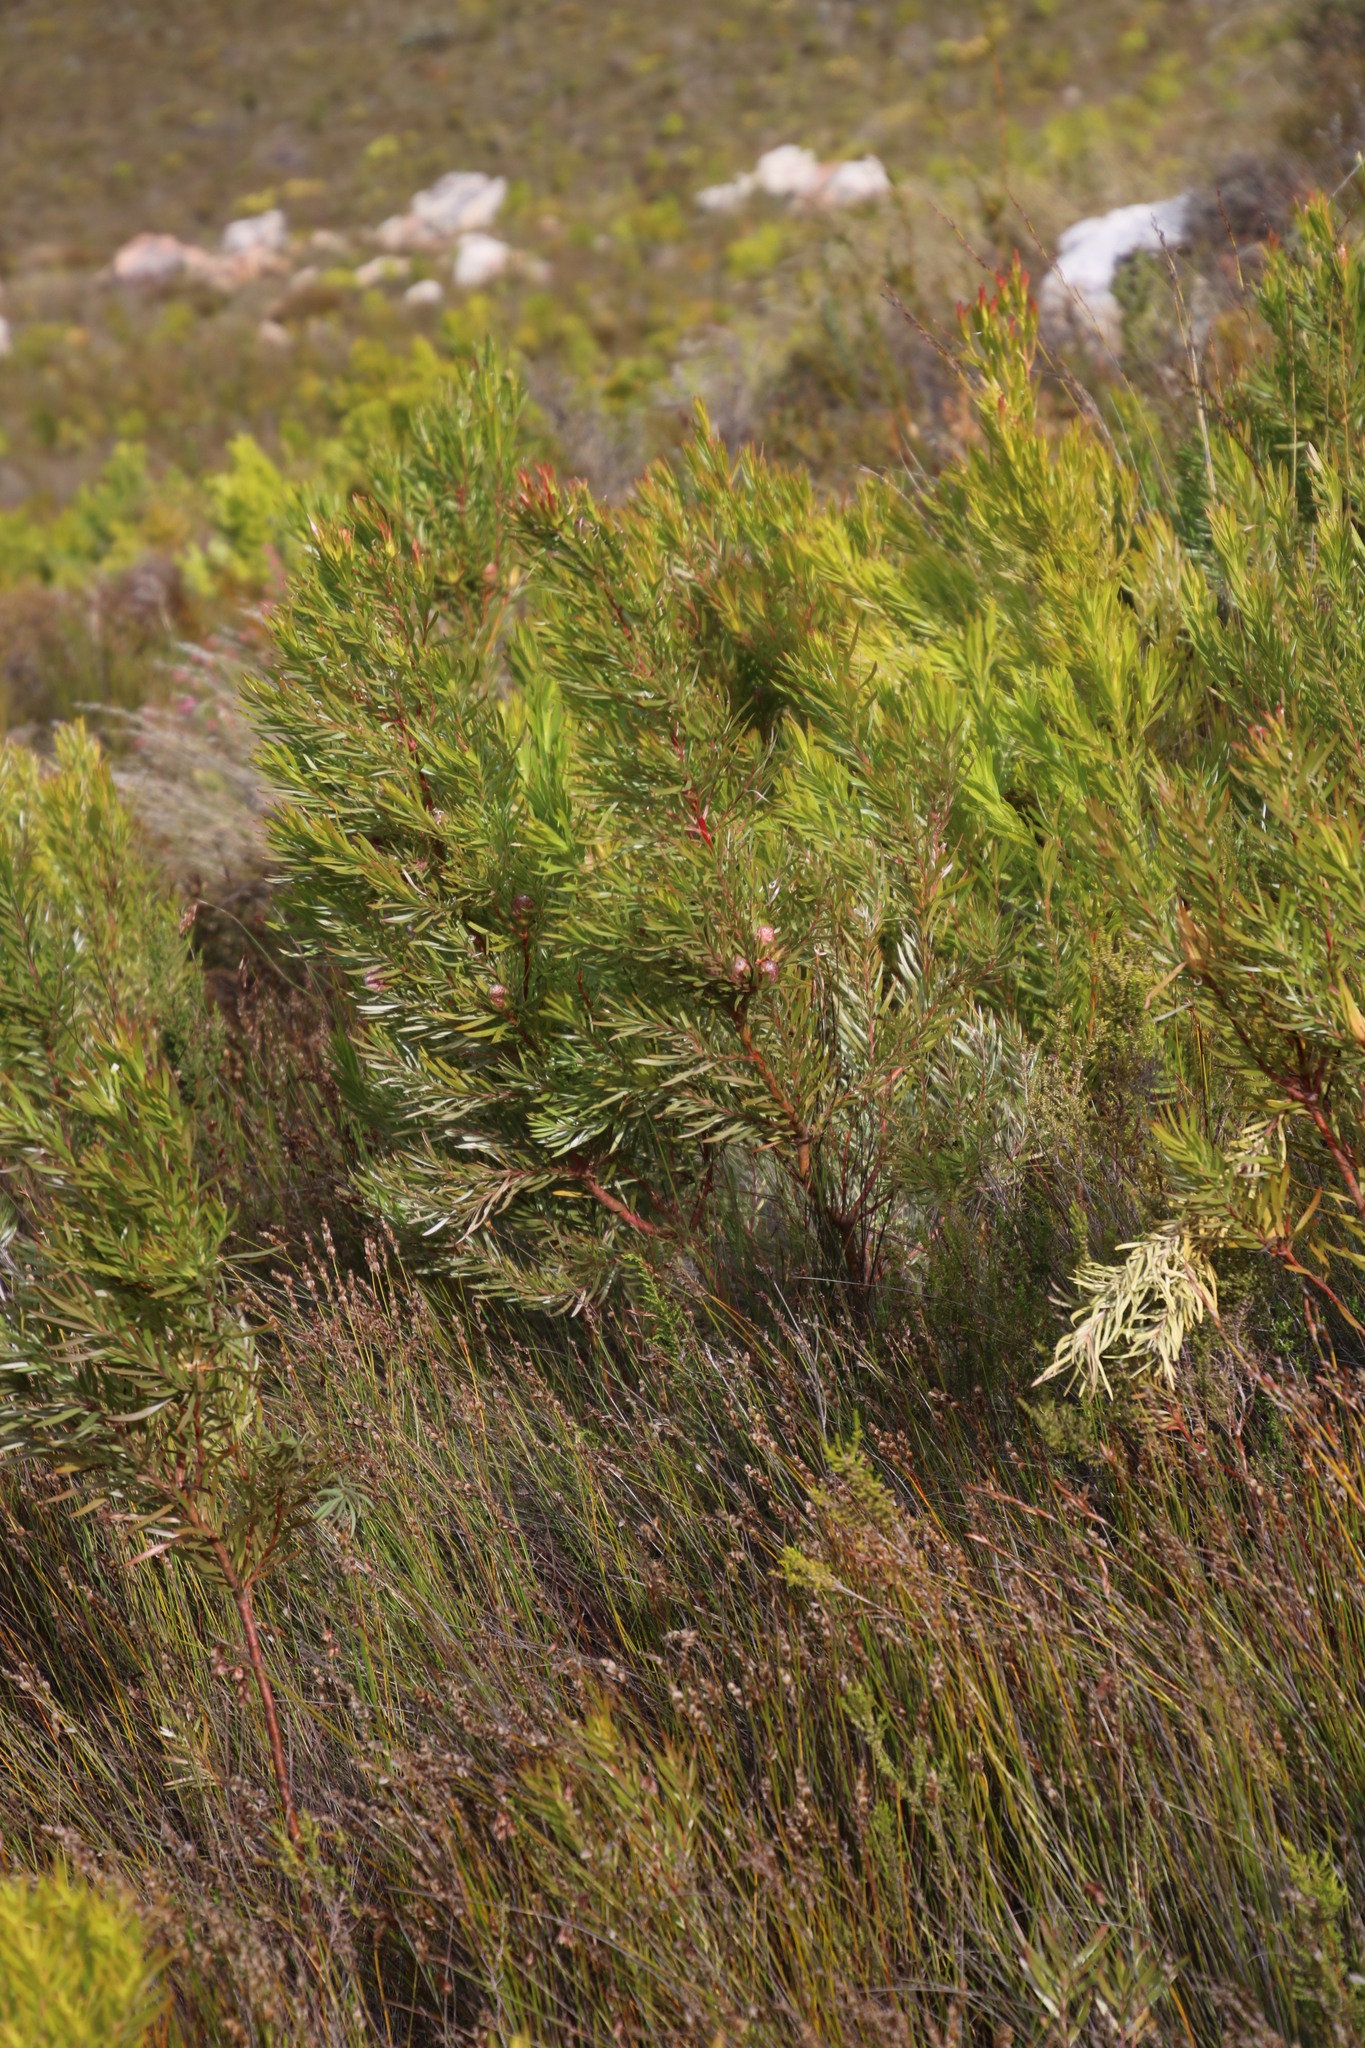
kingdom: Plantae
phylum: Tracheophyta
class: Magnoliopsida
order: Proteales
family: Proteaceae
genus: Leucadendron
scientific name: Leucadendron xanthoconus
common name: Sickle-leaf conebush
